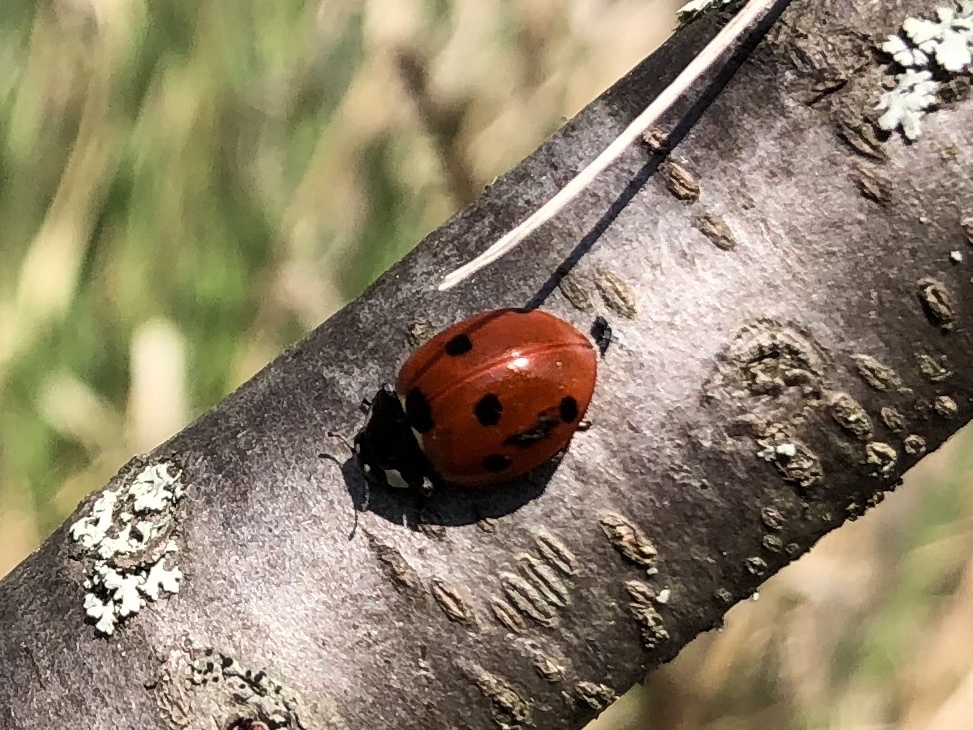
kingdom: Animalia
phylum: Arthropoda
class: Insecta
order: Coleoptera
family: Coccinellidae
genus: Coccinella
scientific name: Coccinella septempunctata
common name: Sevenspotted lady beetle
